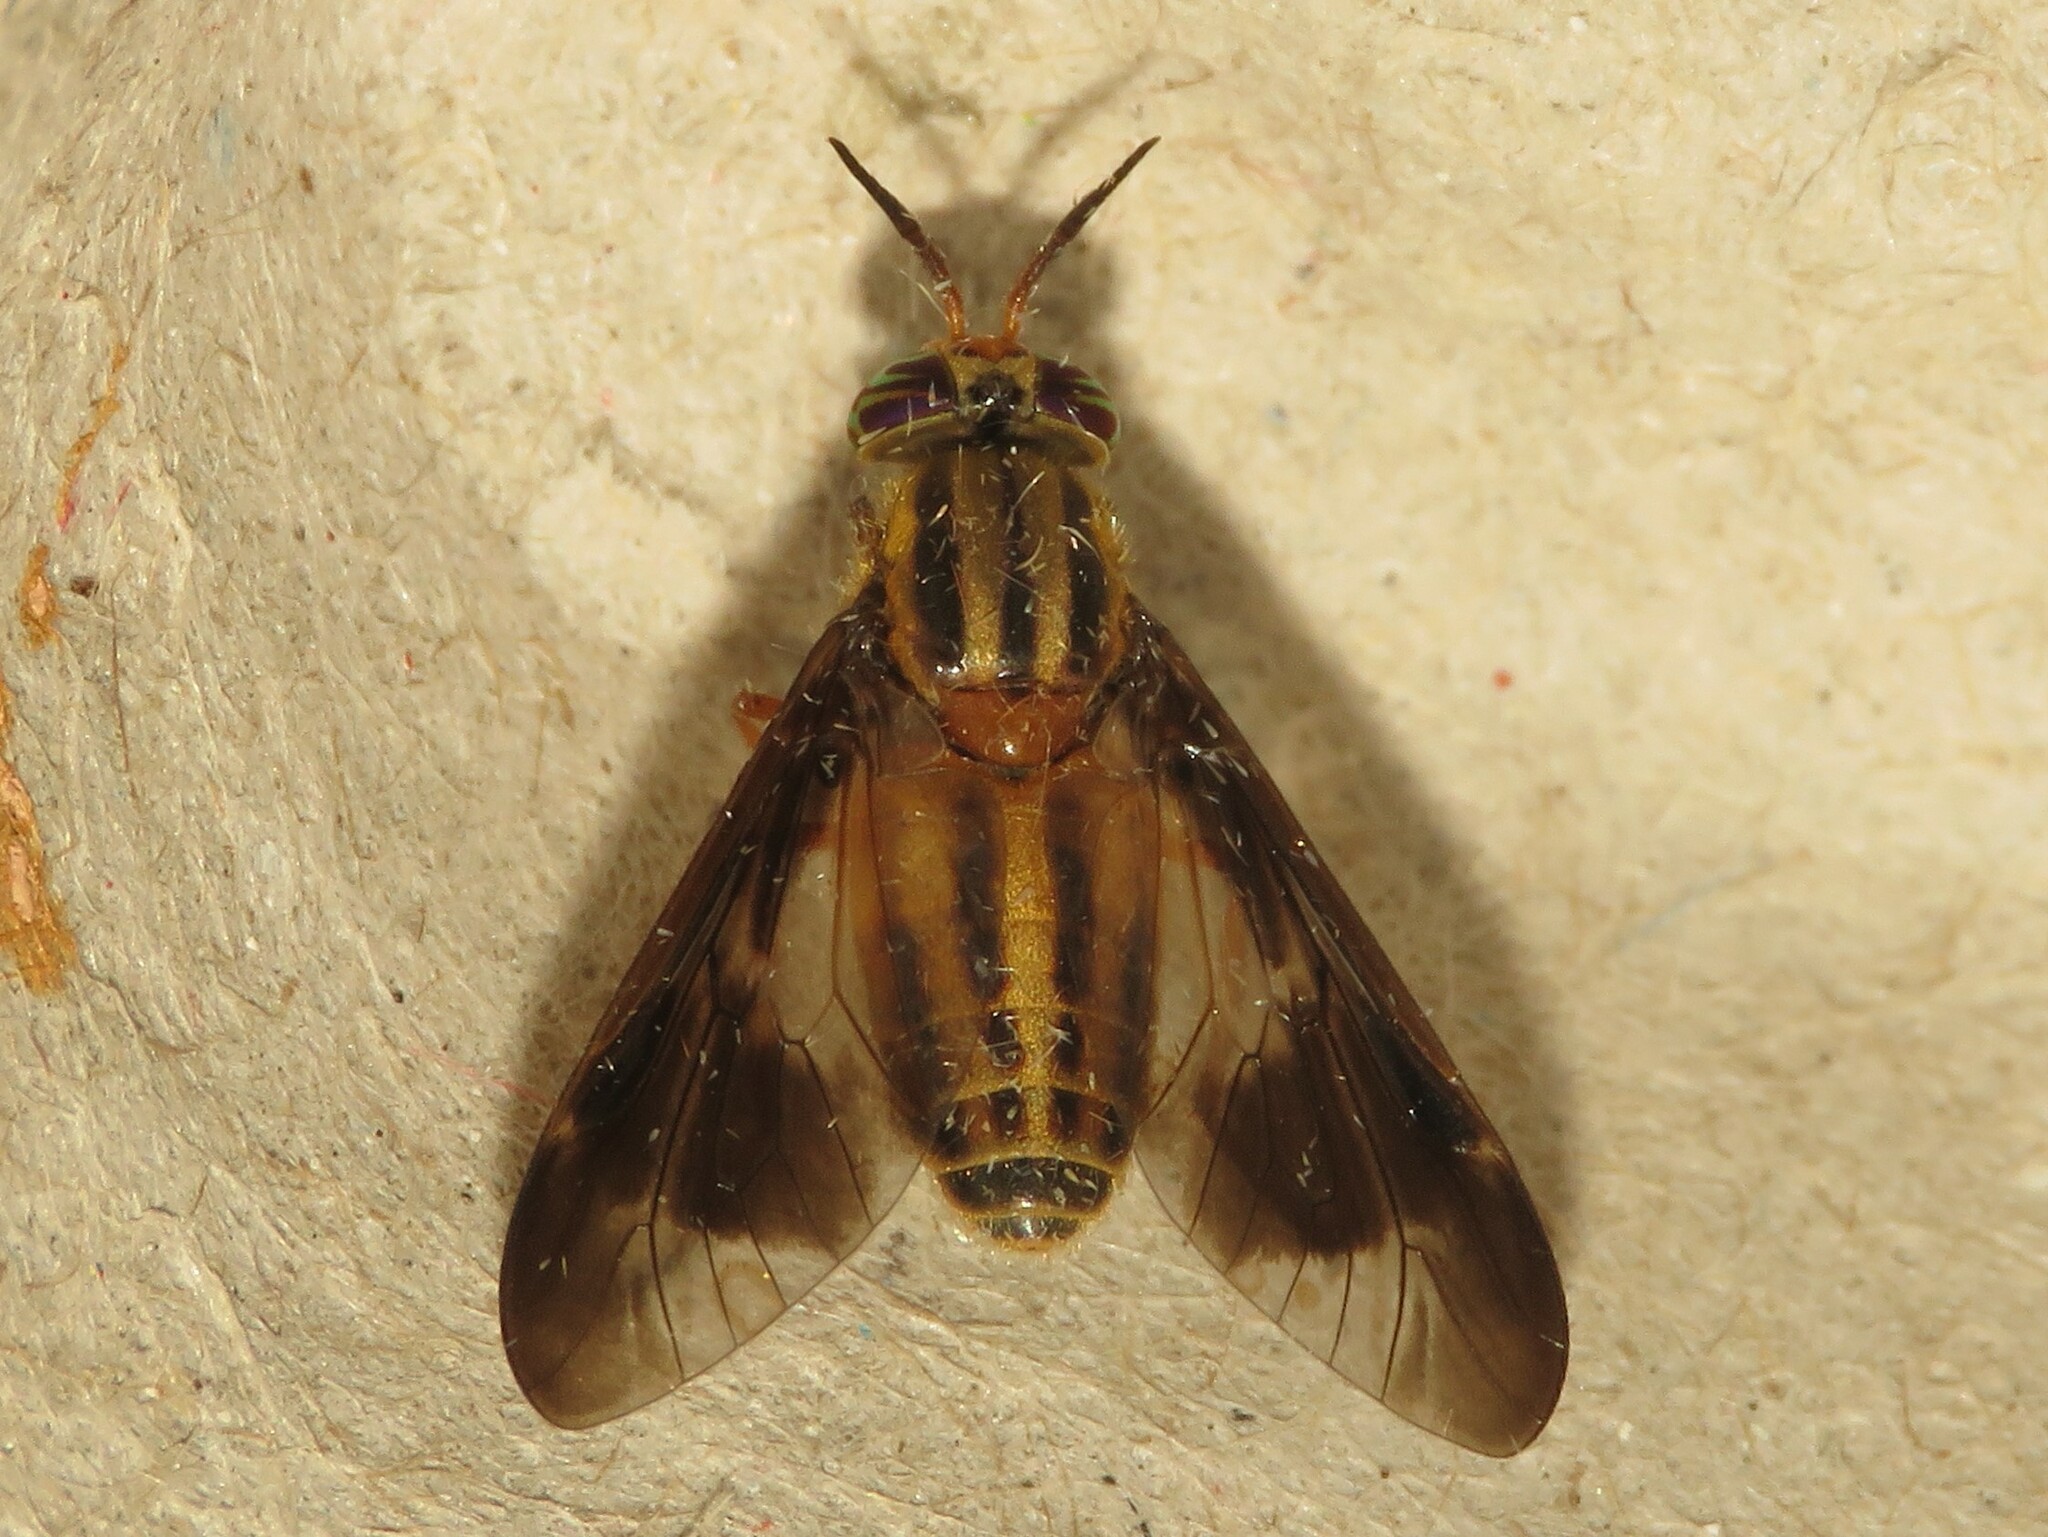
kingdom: Animalia
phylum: Arthropoda
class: Insecta
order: Diptera
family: Tabanidae
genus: Chrysops
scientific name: Chrysops vittatus
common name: Striped deer fly
